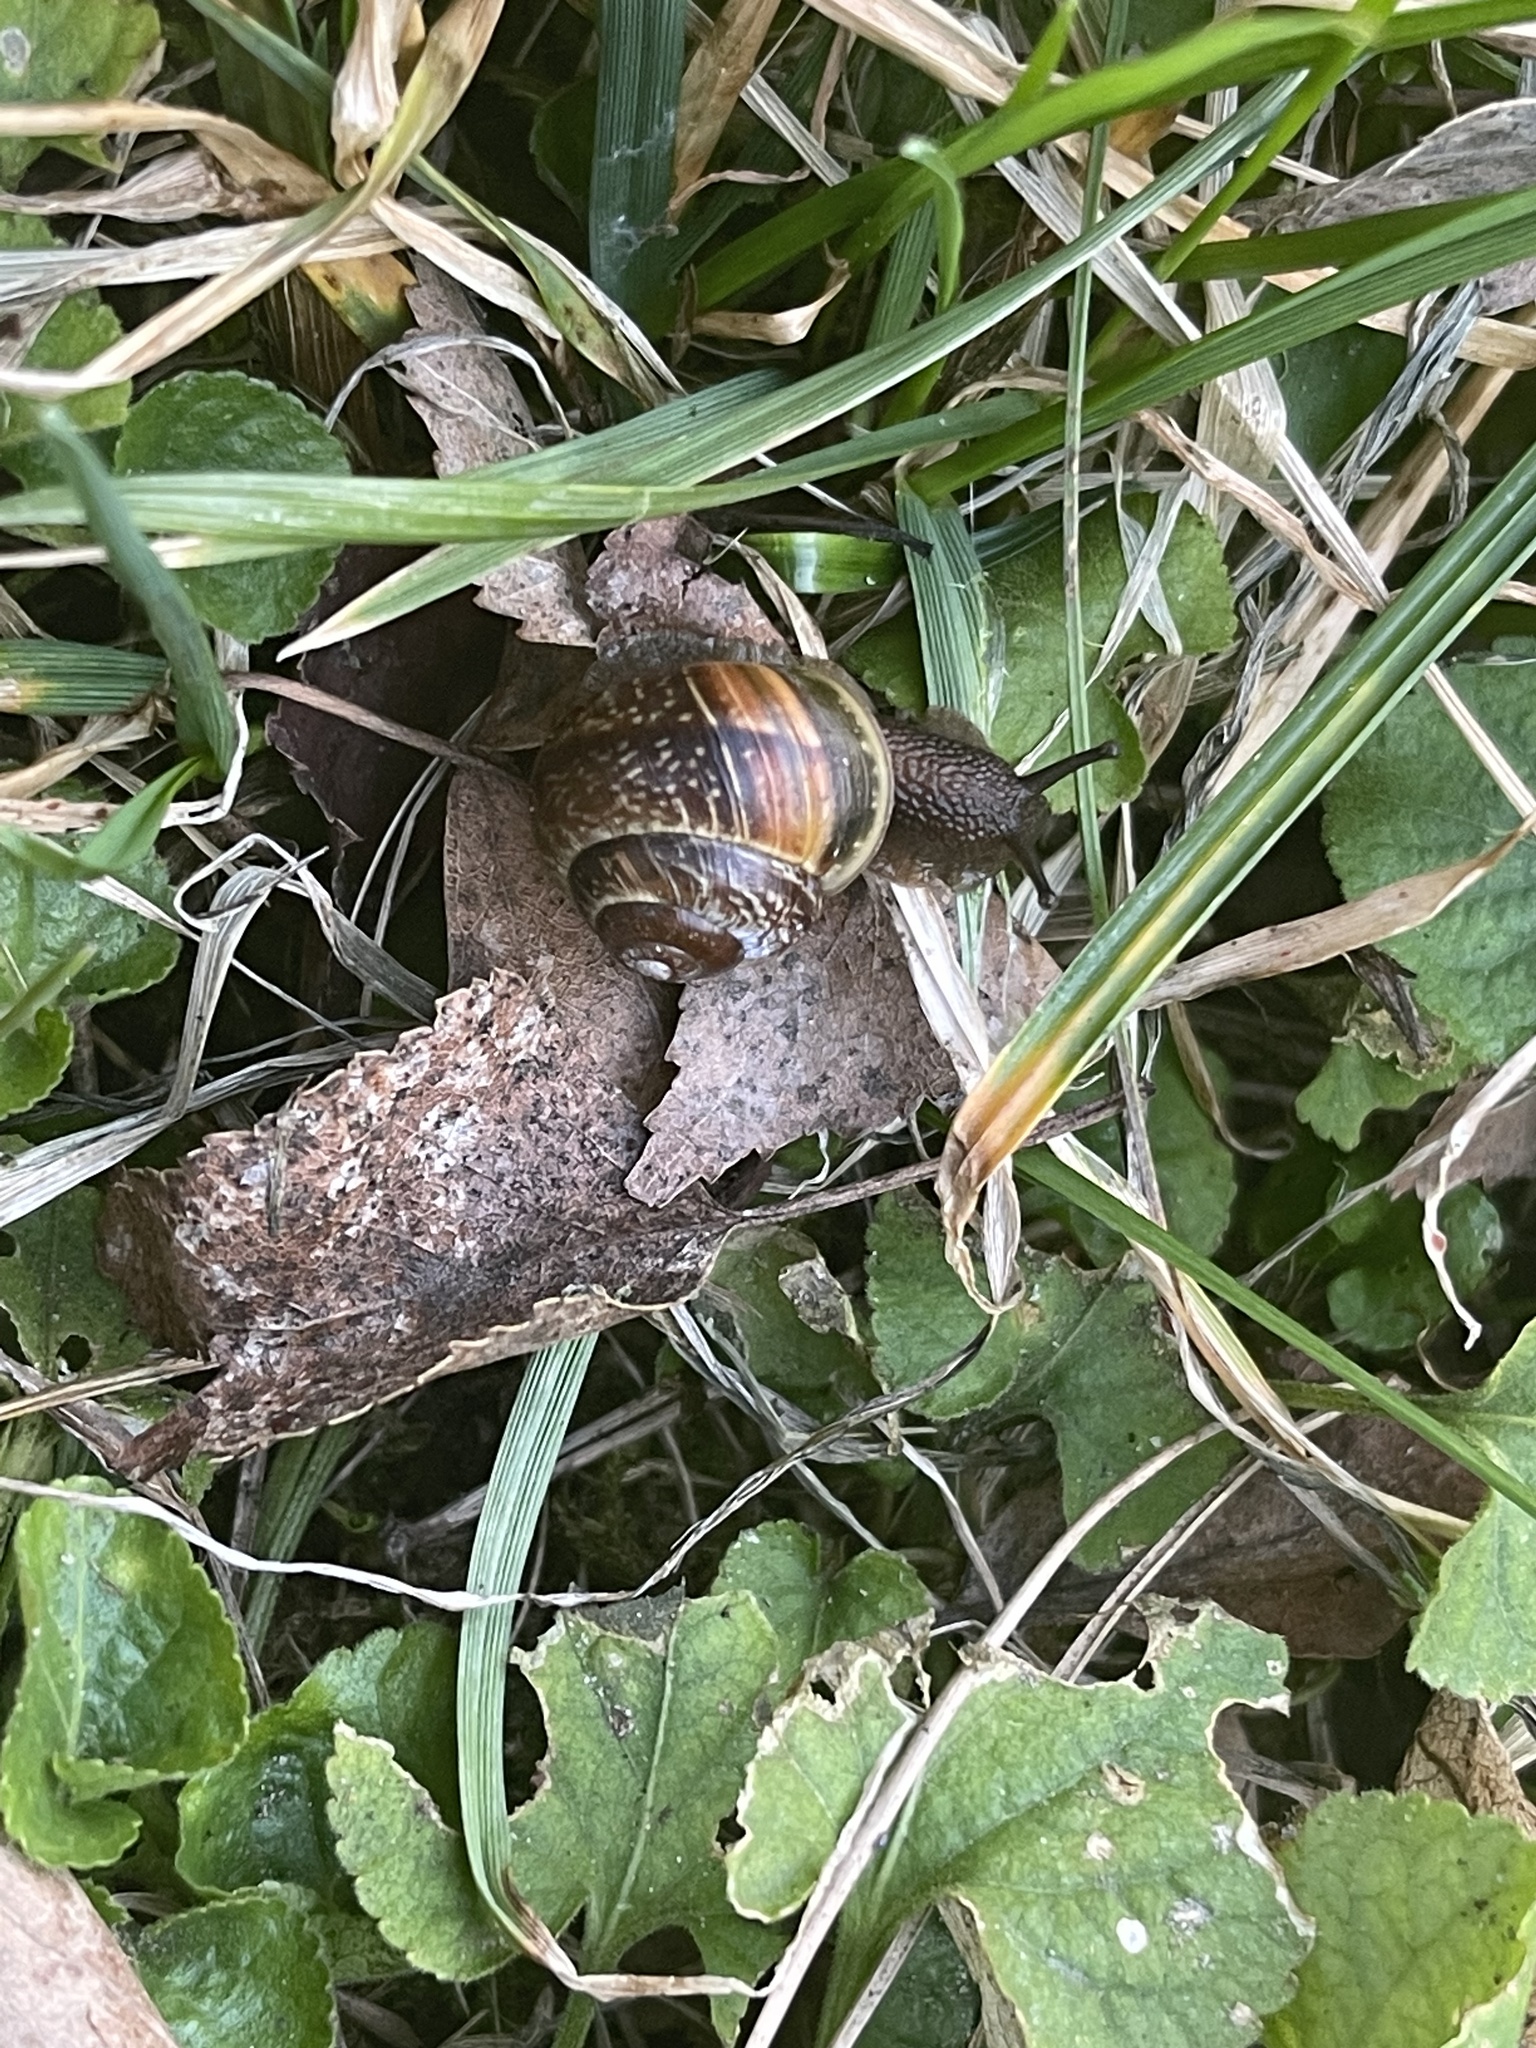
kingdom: Animalia
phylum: Mollusca
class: Gastropoda
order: Stylommatophora
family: Helicidae
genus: Arianta
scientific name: Arianta arbustorum
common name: Copse snail
